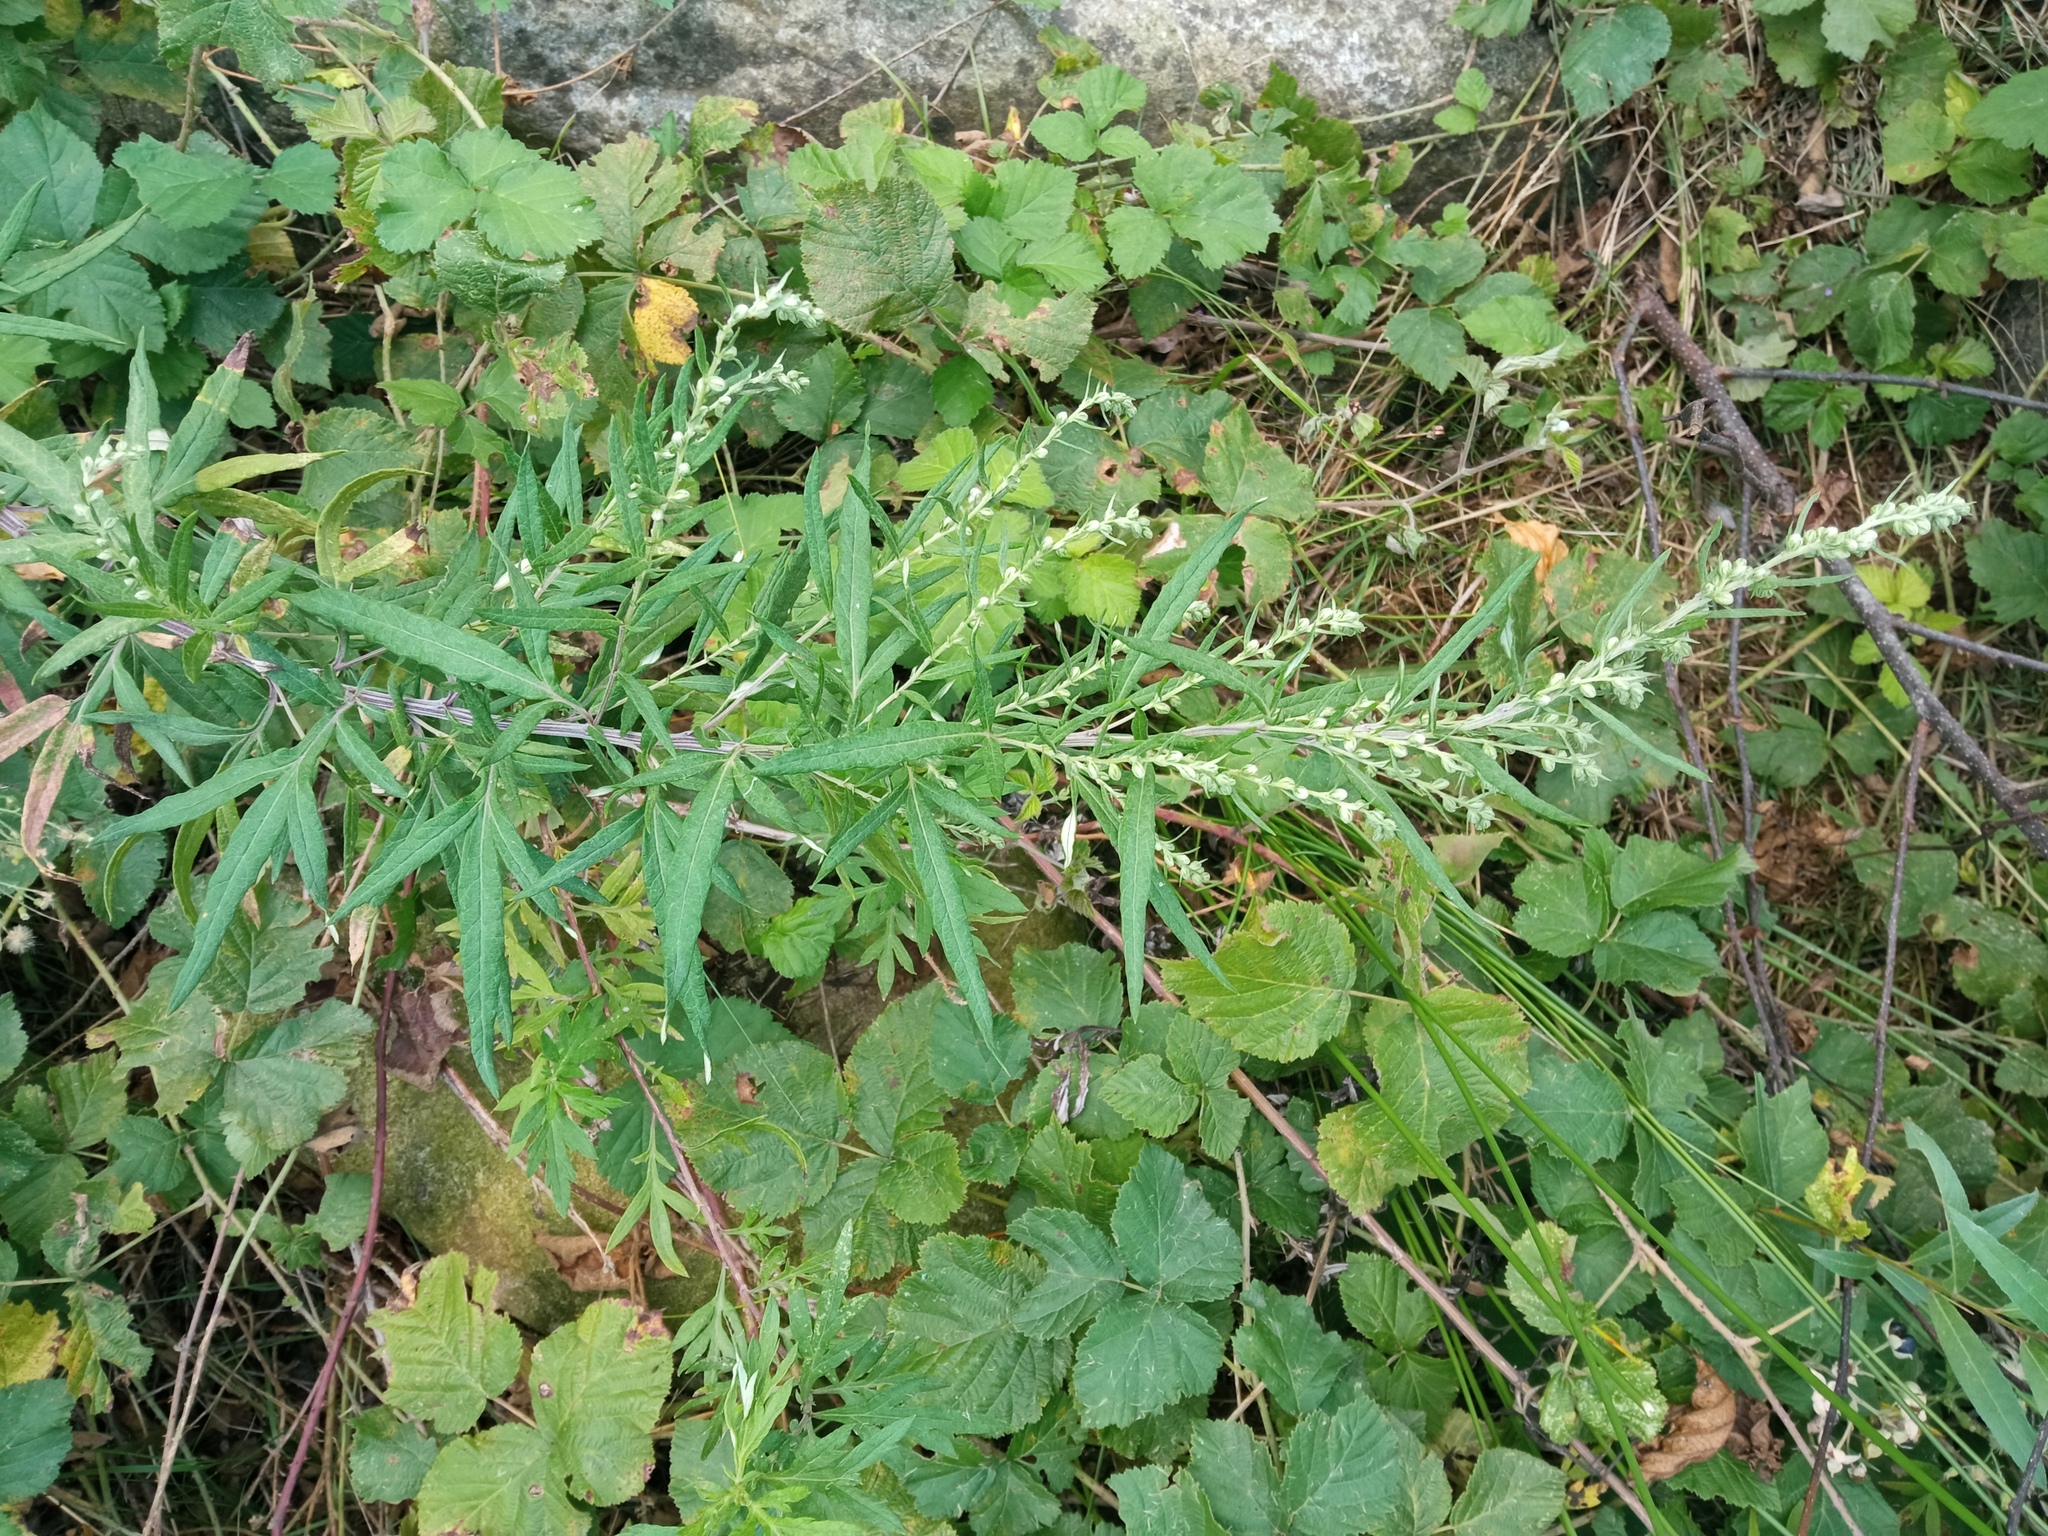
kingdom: Plantae
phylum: Tracheophyta
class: Magnoliopsida
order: Asterales
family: Asteraceae
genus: Artemisia
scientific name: Artemisia verlotiorum
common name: Chinese mugwort
